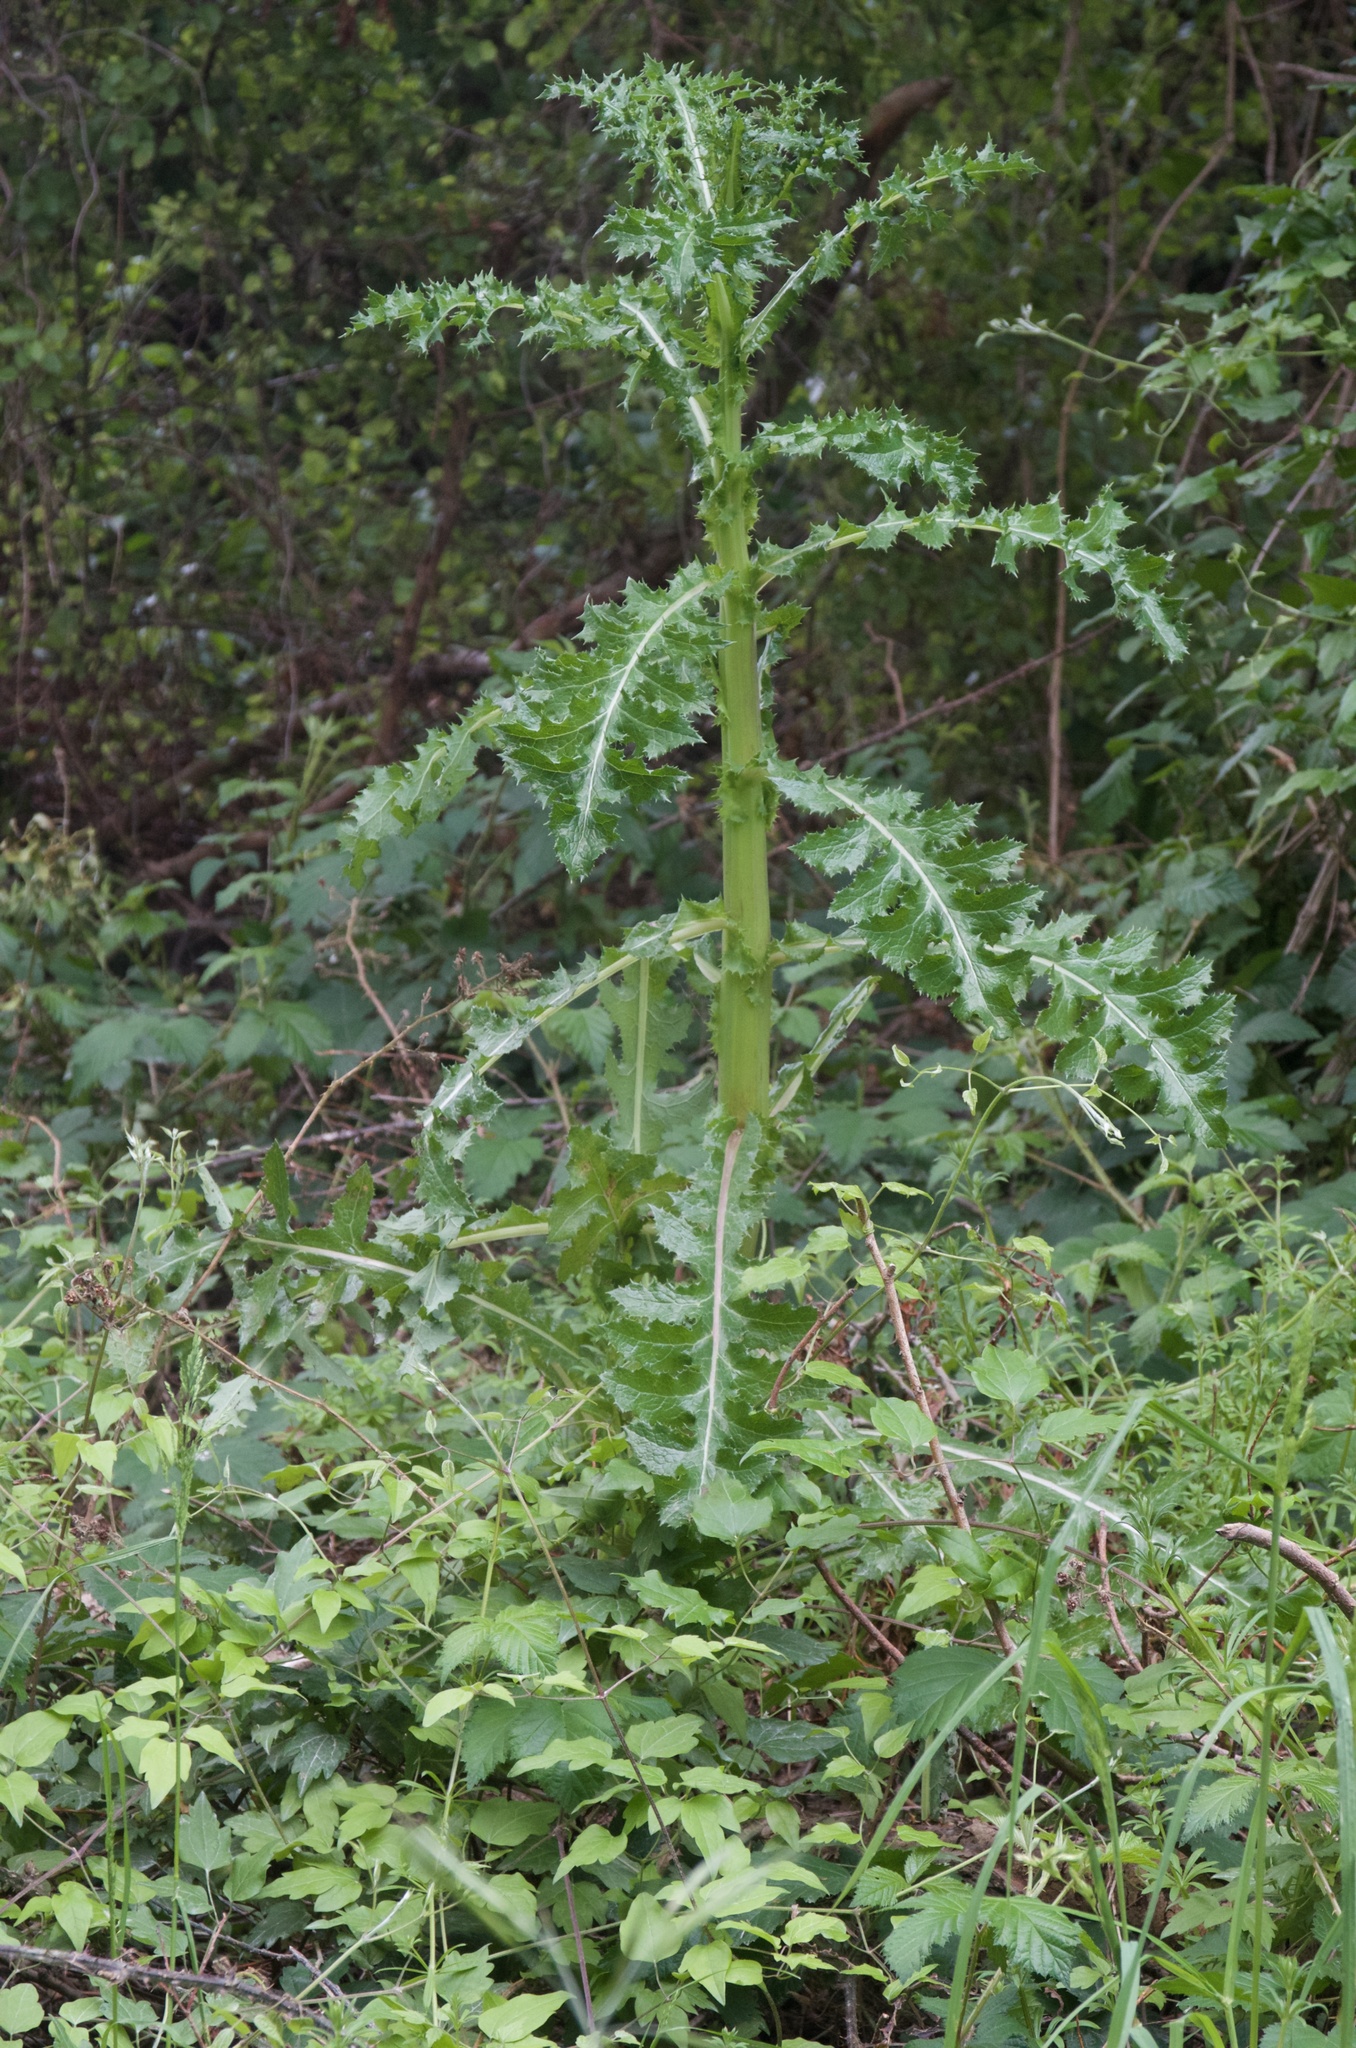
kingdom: Plantae
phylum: Tracheophyta
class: Magnoliopsida
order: Asterales
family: Asteraceae
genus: Sonchus
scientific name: Sonchus asper
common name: Prickly sow-thistle
